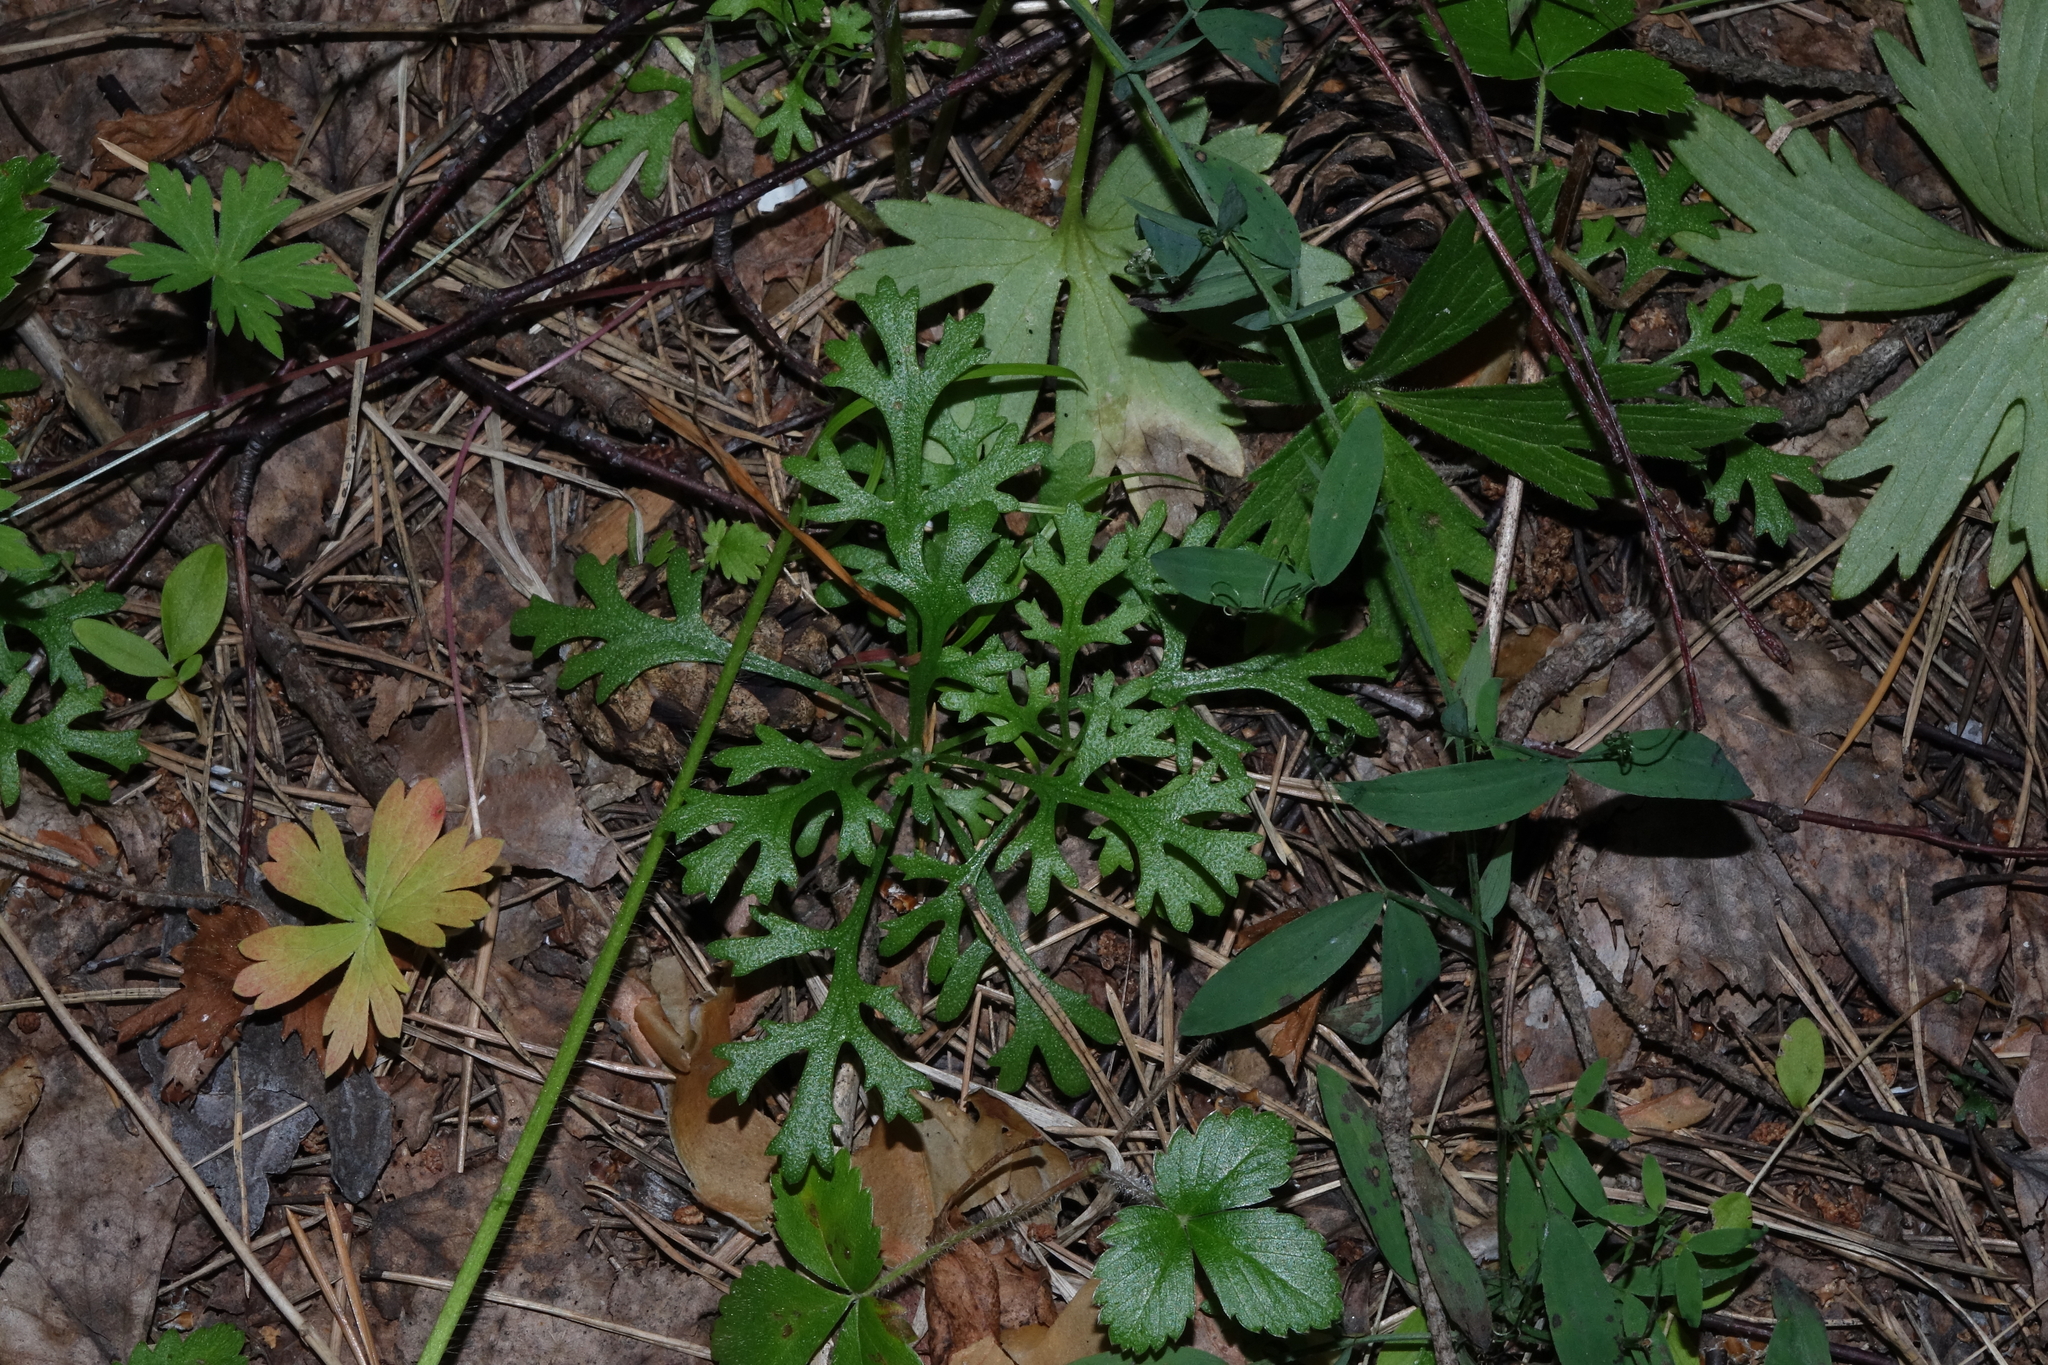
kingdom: Plantae
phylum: Tracheophyta
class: Magnoliopsida
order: Asterales
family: Asteraceae
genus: Chrysanthemum
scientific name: Chrysanthemum zawadzkii
